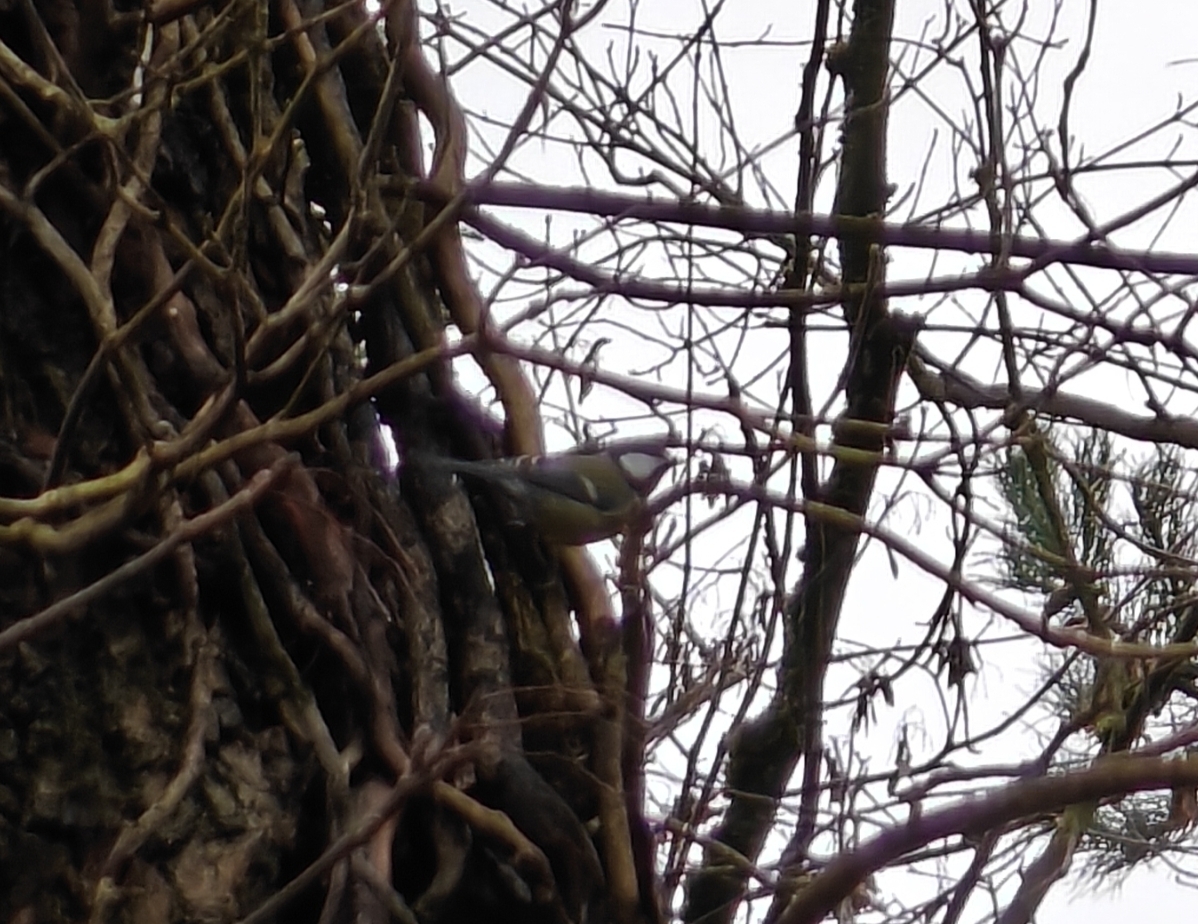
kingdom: Animalia
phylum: Chordata
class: Aves
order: Passeriformes
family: Paridae
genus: Parus
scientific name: Parus major
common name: Great tit
